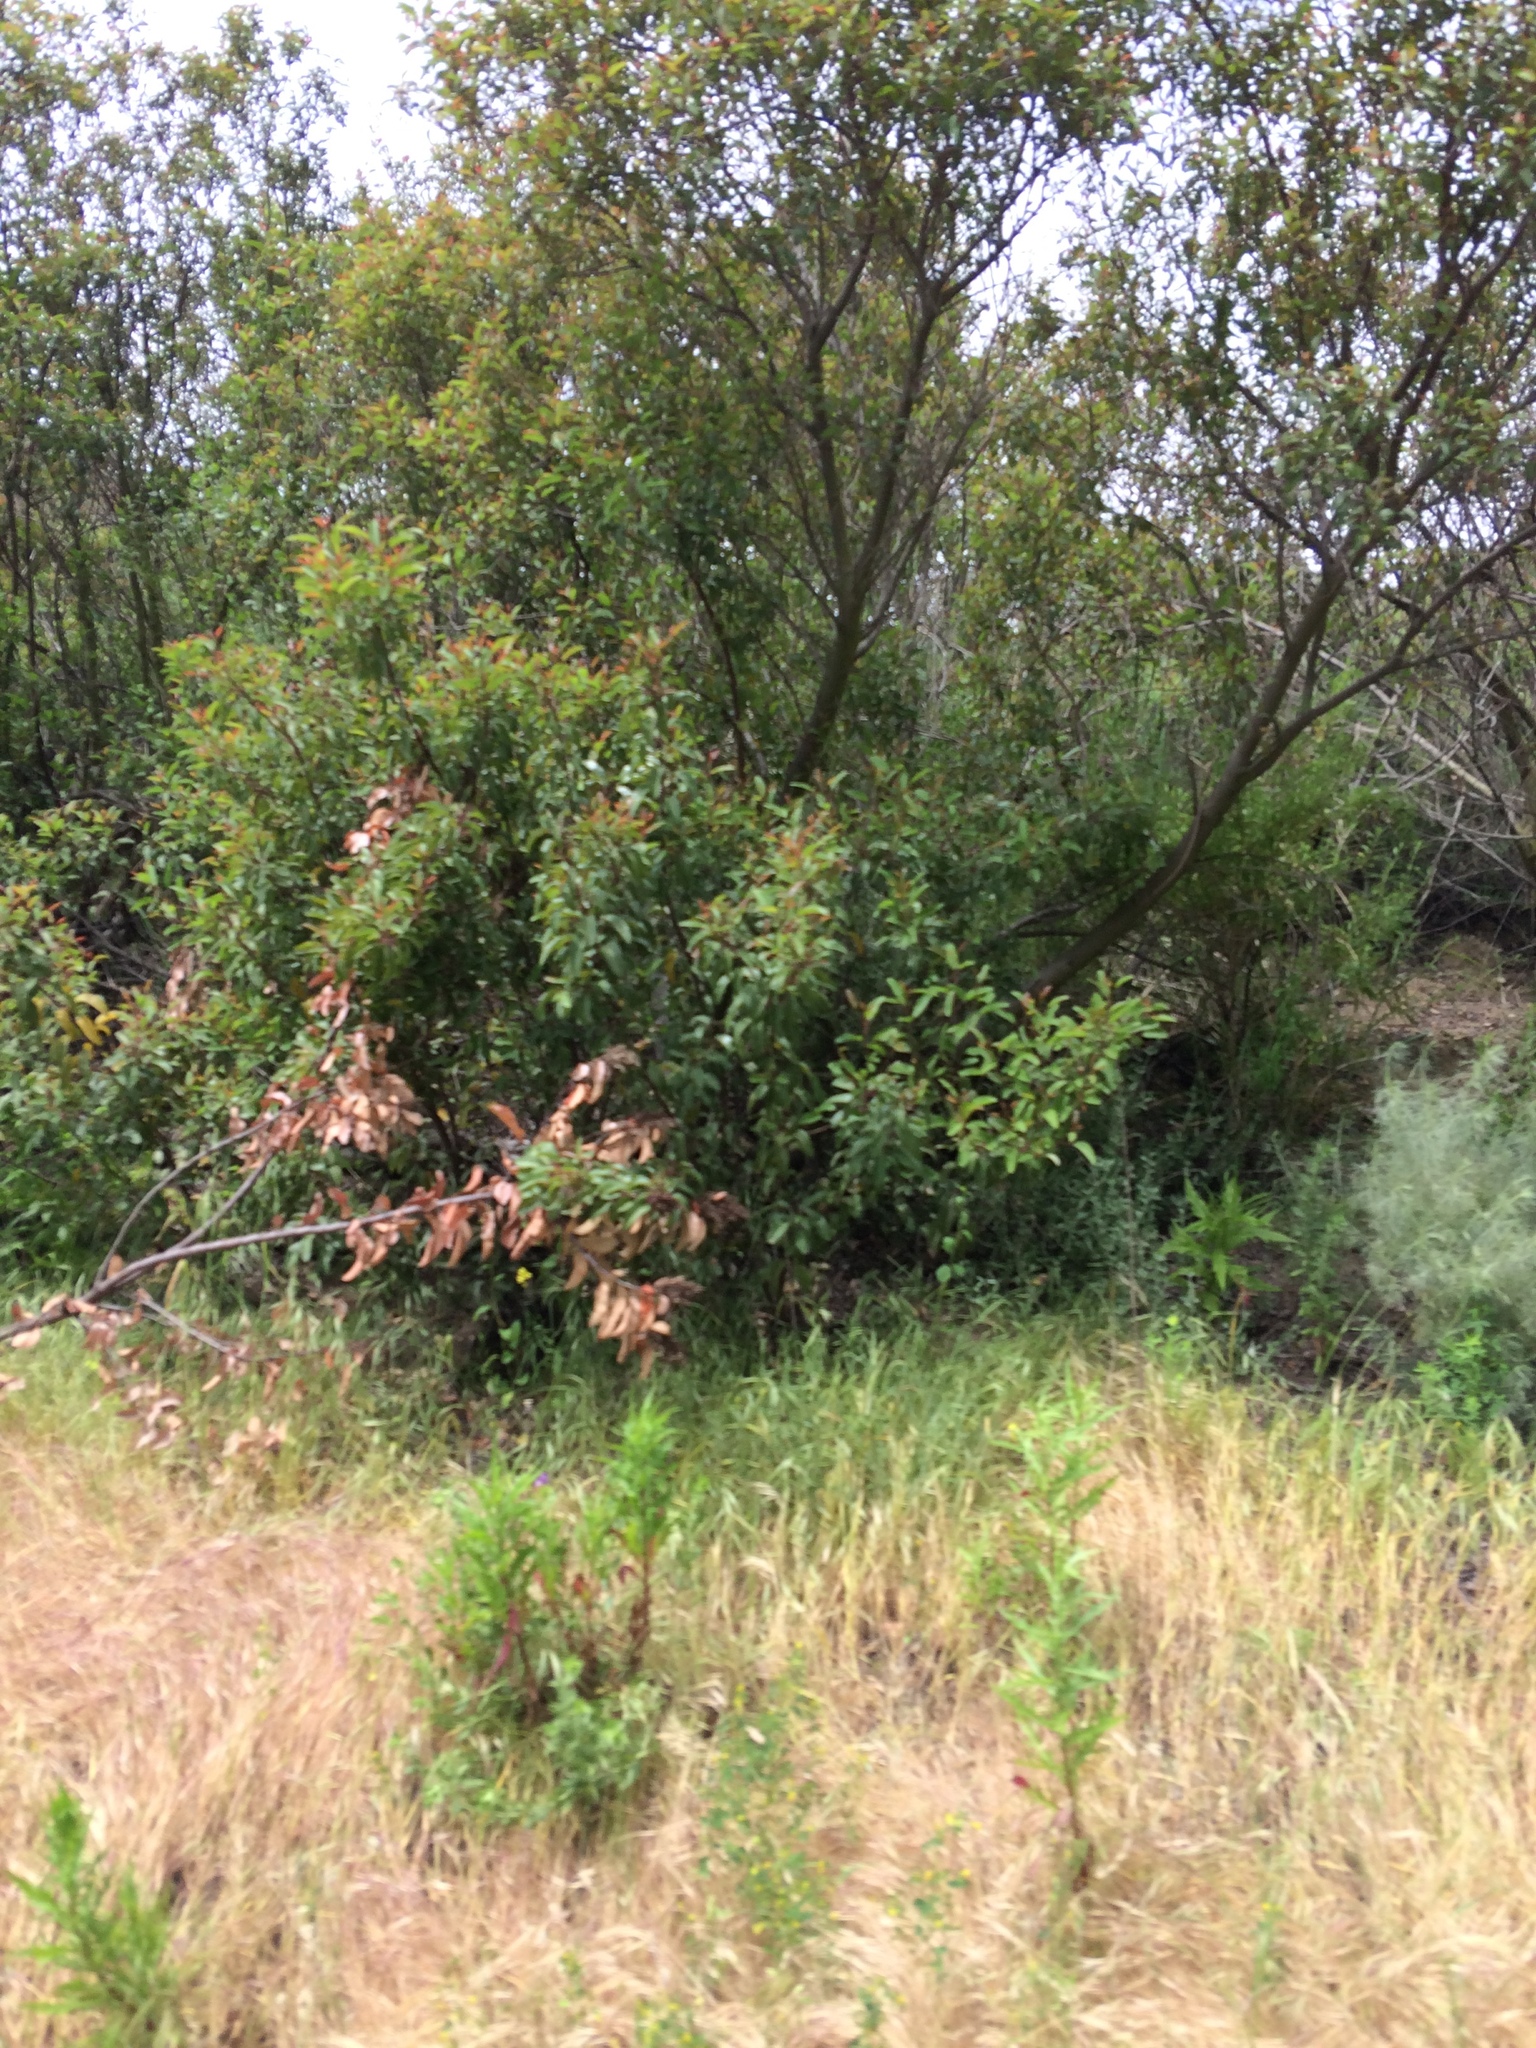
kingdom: Plantae
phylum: Tracheophyta
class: Magnoliopsida
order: Sapindales
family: Anacardiaceae
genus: Malosma
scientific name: Malosma laurina
